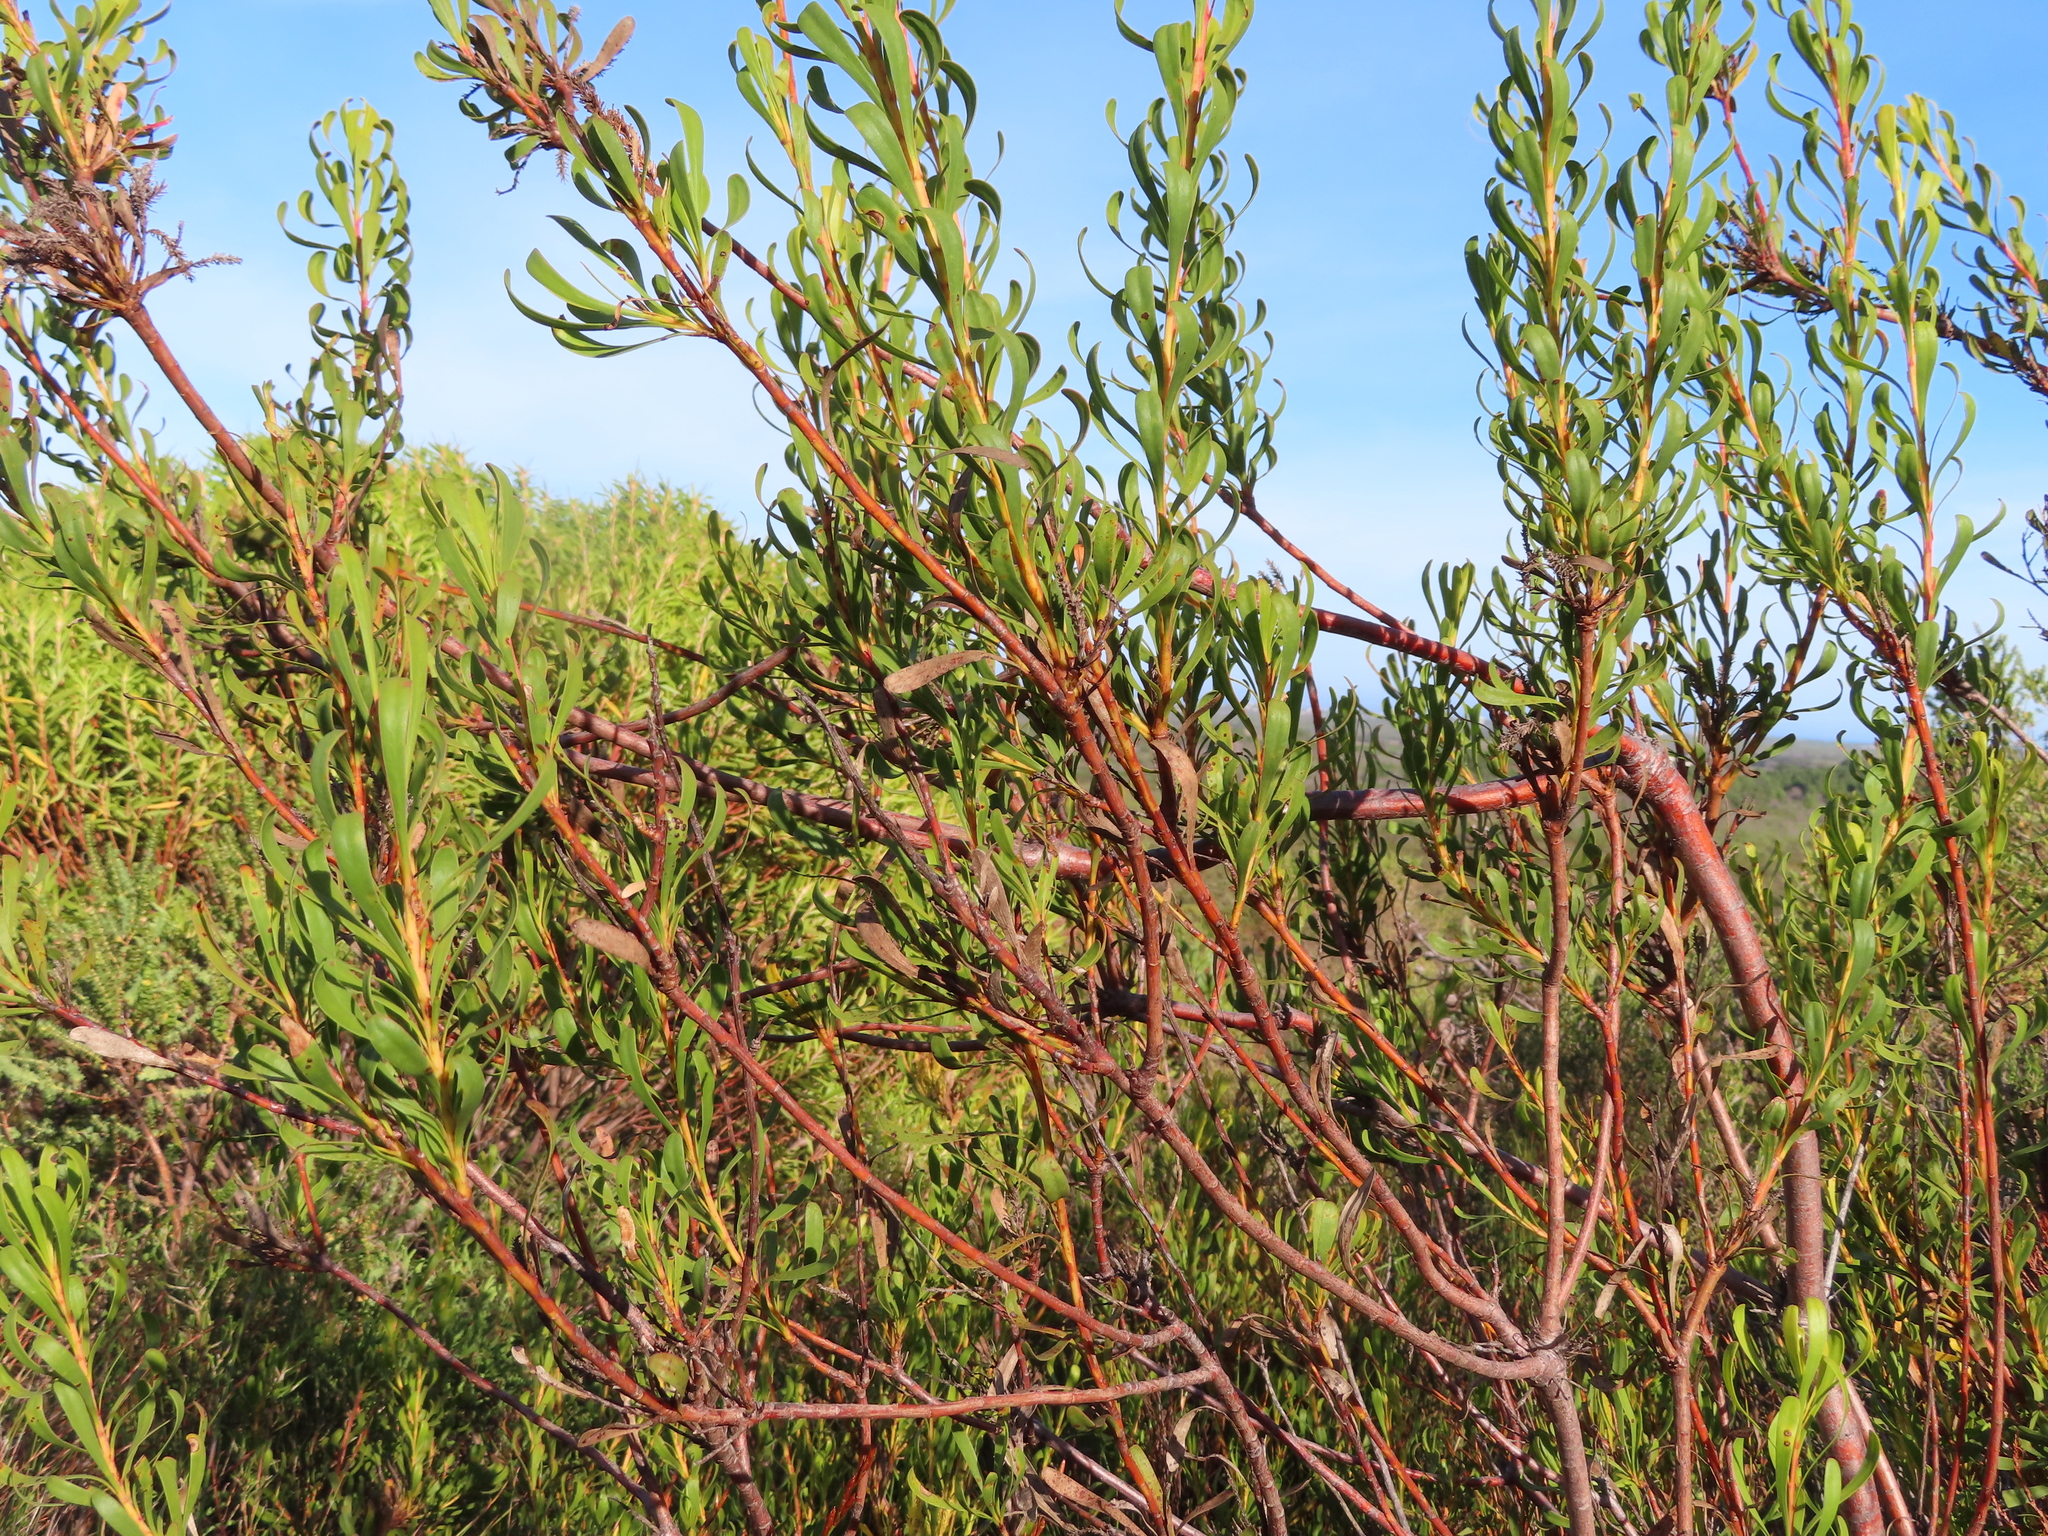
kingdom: Plantae
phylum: Tracheophyta
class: Magnoliopsida
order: Proteales
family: Proteaceae
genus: Aulax
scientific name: Aulax umbellata
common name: Broad-leaf featherbush
